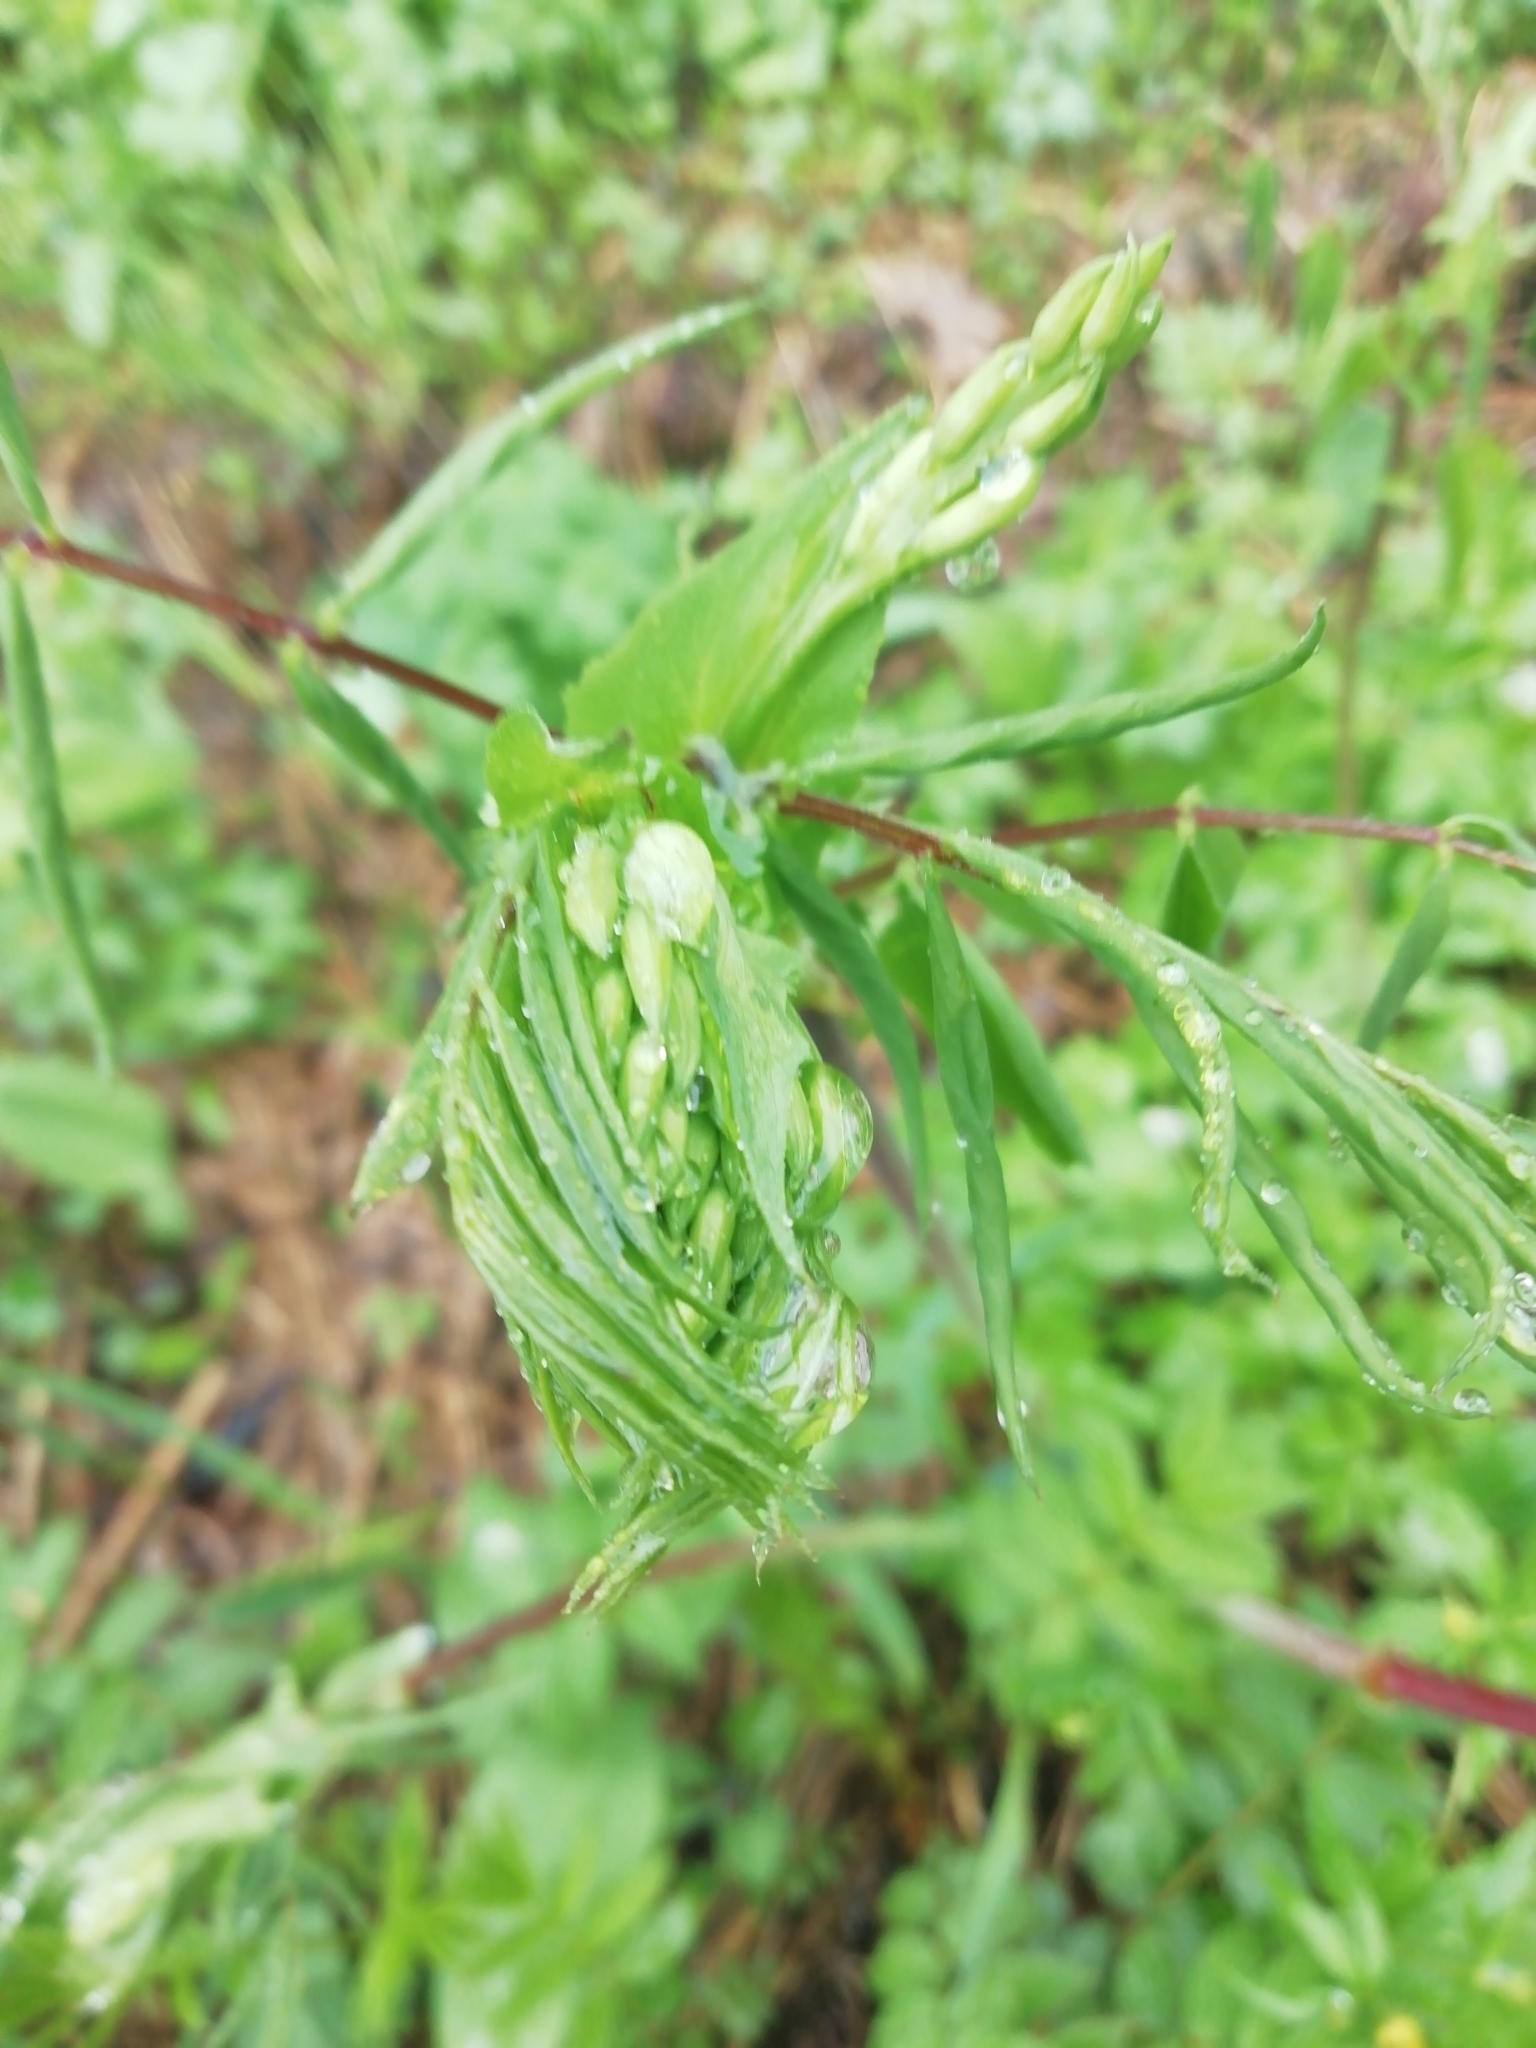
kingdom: Plantae
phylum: Tracheophyta
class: Magnoliopsida
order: Fabales
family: Fabaceae
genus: Lathyrus
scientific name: Lathyrus gmelinii
